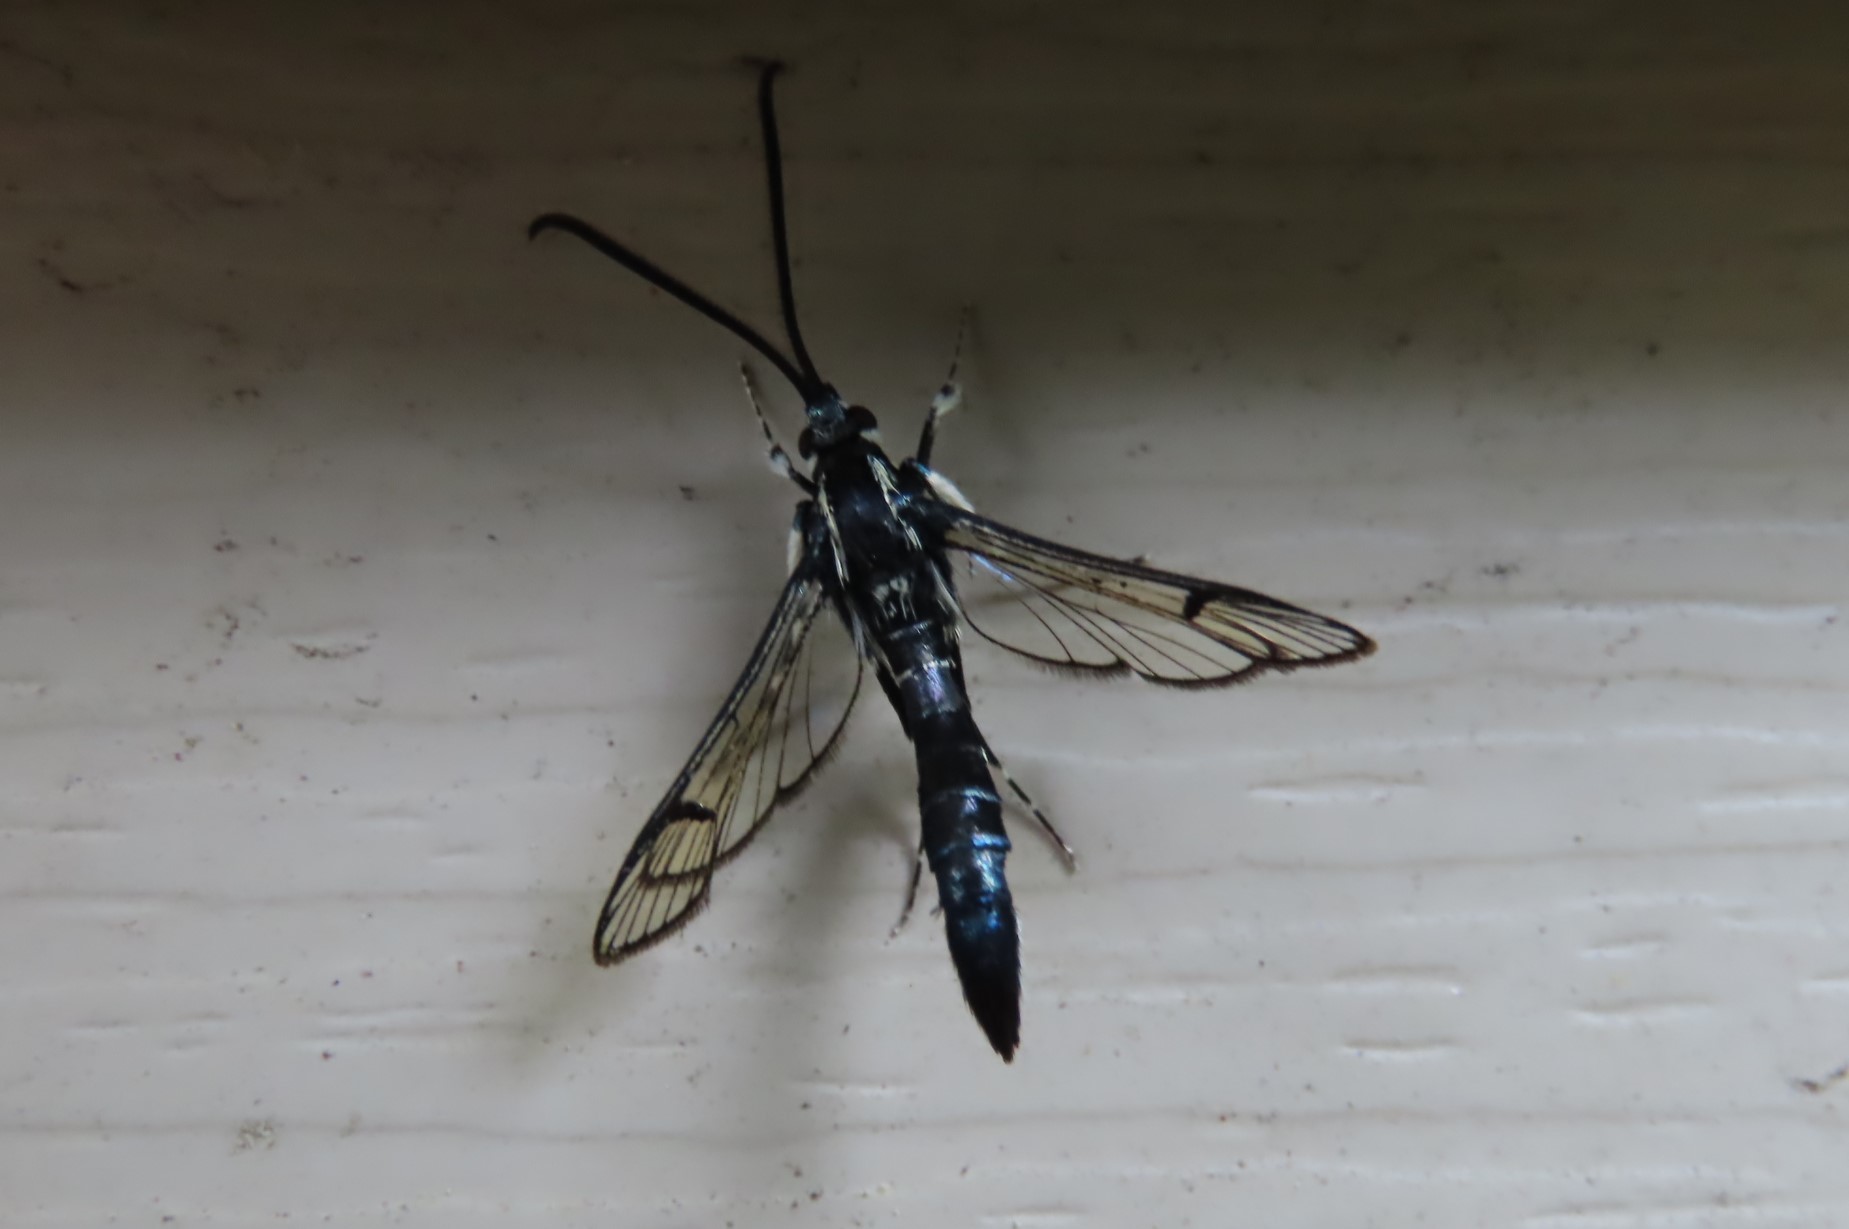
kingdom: Animalia
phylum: Arthropoda
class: Insecta
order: Lepidoptera
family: Sesiidae
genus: Synanthedon
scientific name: Synanthedon pictipes
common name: Lesser peachtree borer moth
